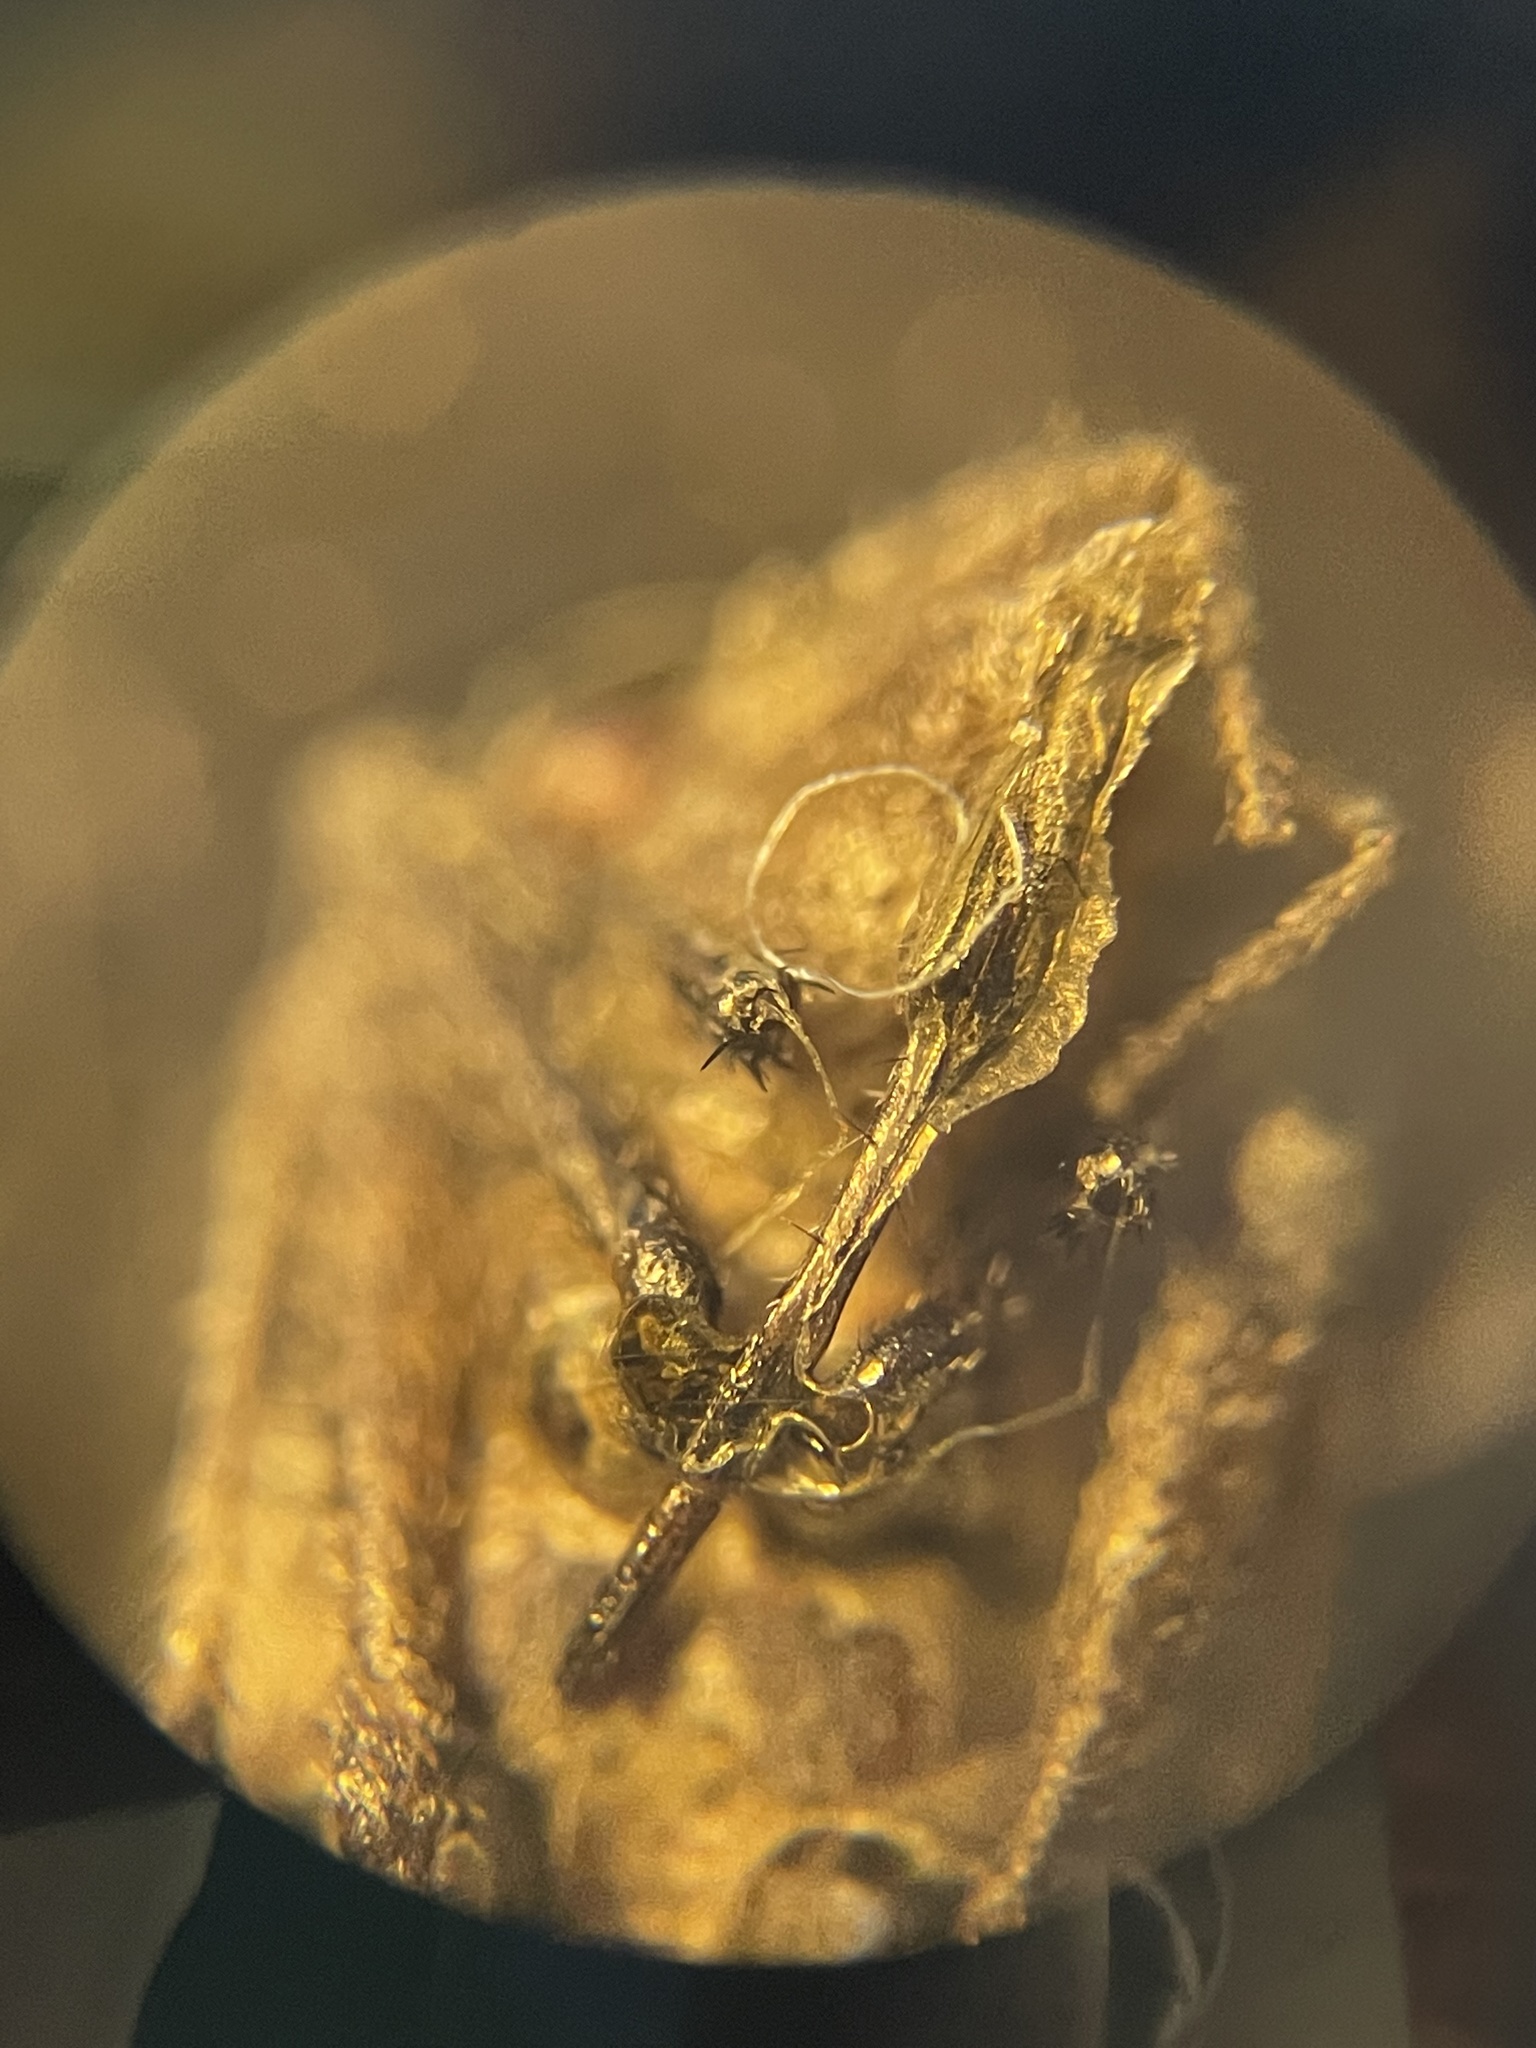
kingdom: Animalia
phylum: Arthropoda
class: Insecta
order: Hemiptera
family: Alydidae
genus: Stachyocnemus
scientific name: Stachyocnemus apicalis
